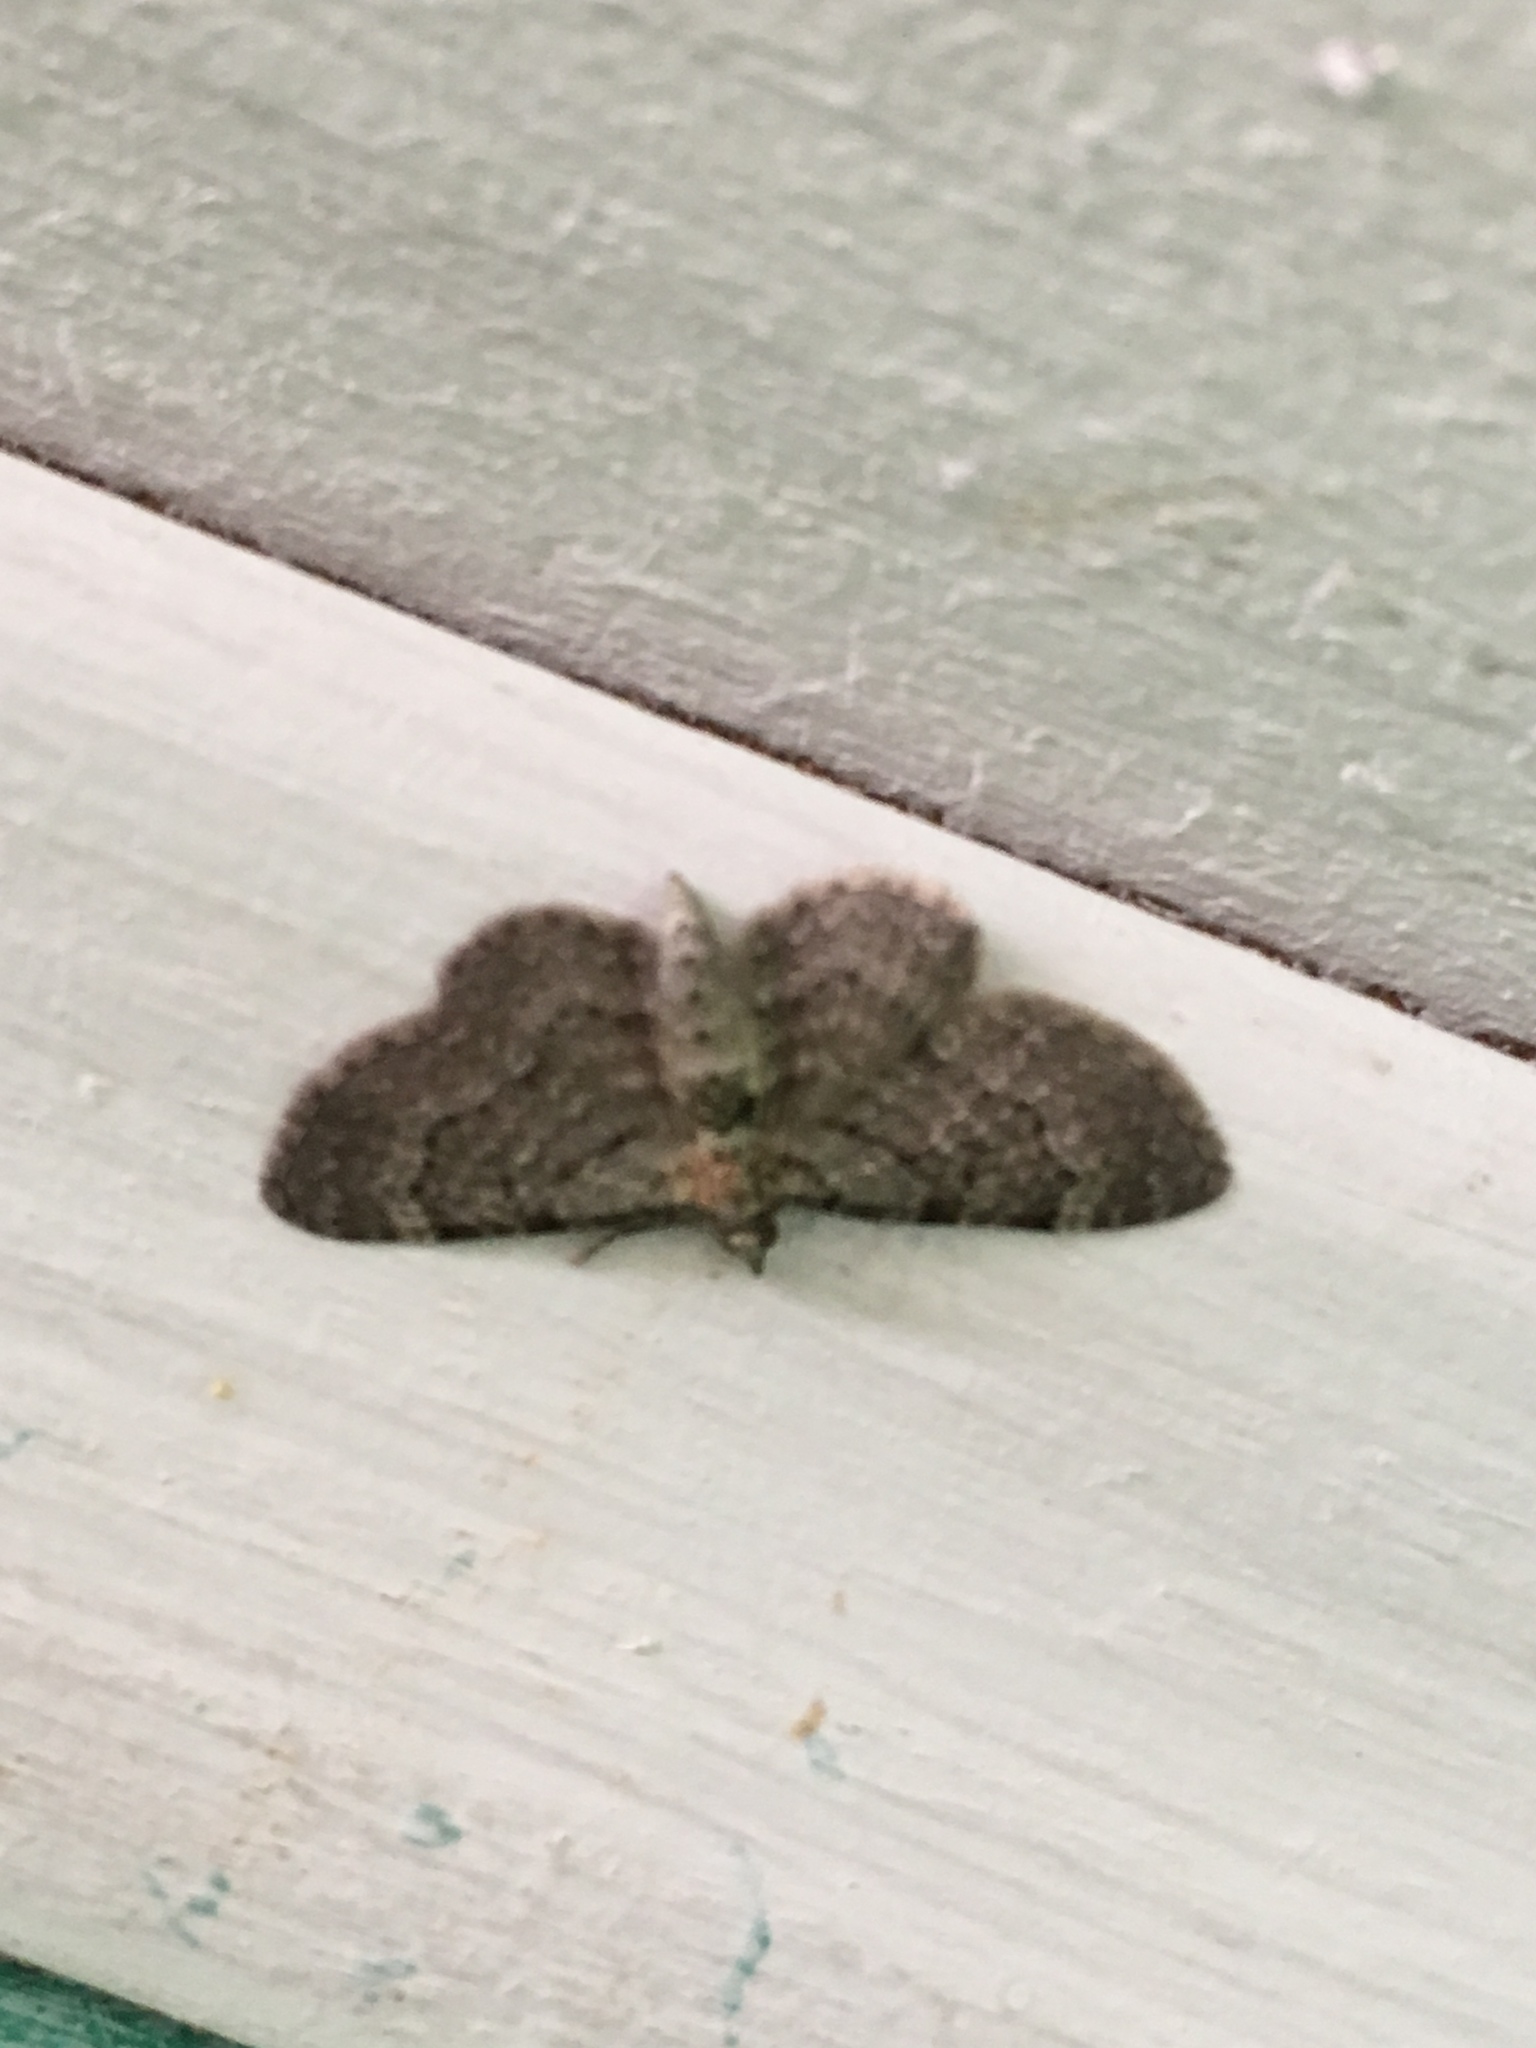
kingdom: Animalia
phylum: Arthropoda
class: Insecta
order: Lepidoptera
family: Geometridae
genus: Pasiphila
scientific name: Pasiphila rectangulata
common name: Green pug
